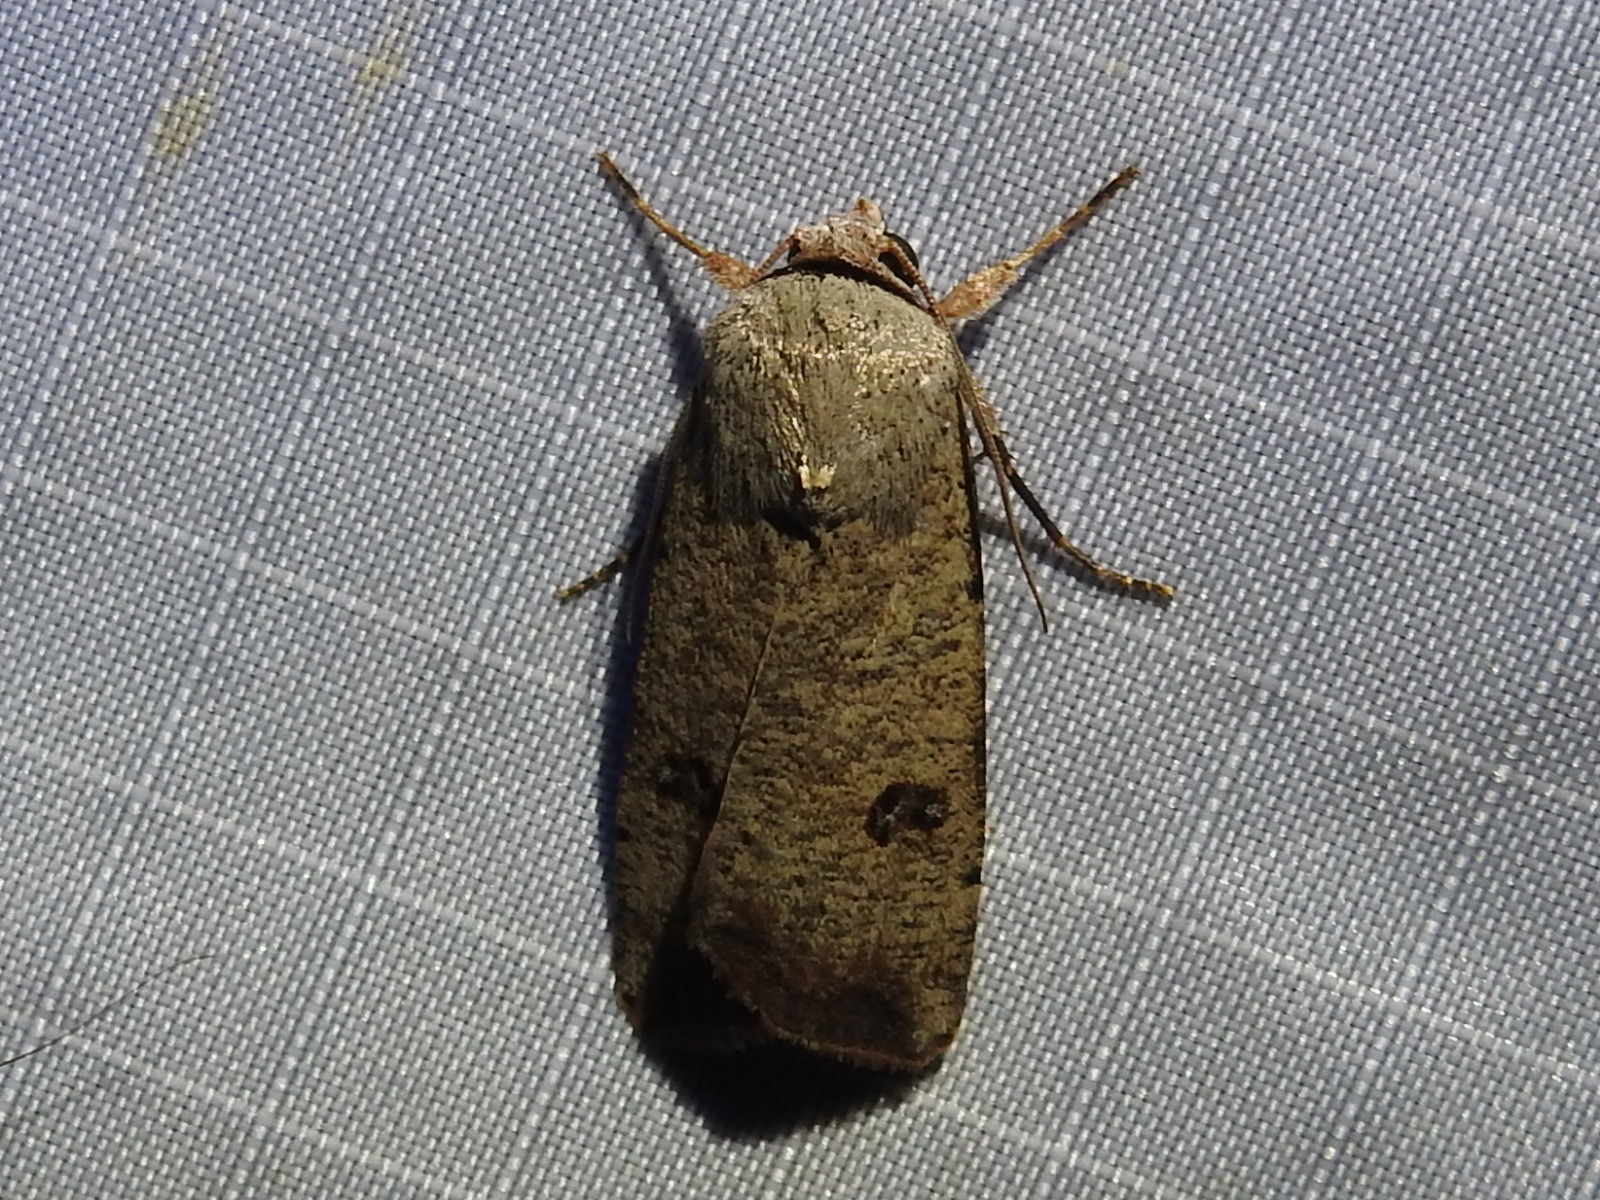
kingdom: Animalia
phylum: Arthropoda
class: Insecta
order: Lepidoptera
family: Noctuidae
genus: Anicla
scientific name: Anicla infecta
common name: Green cutworm
